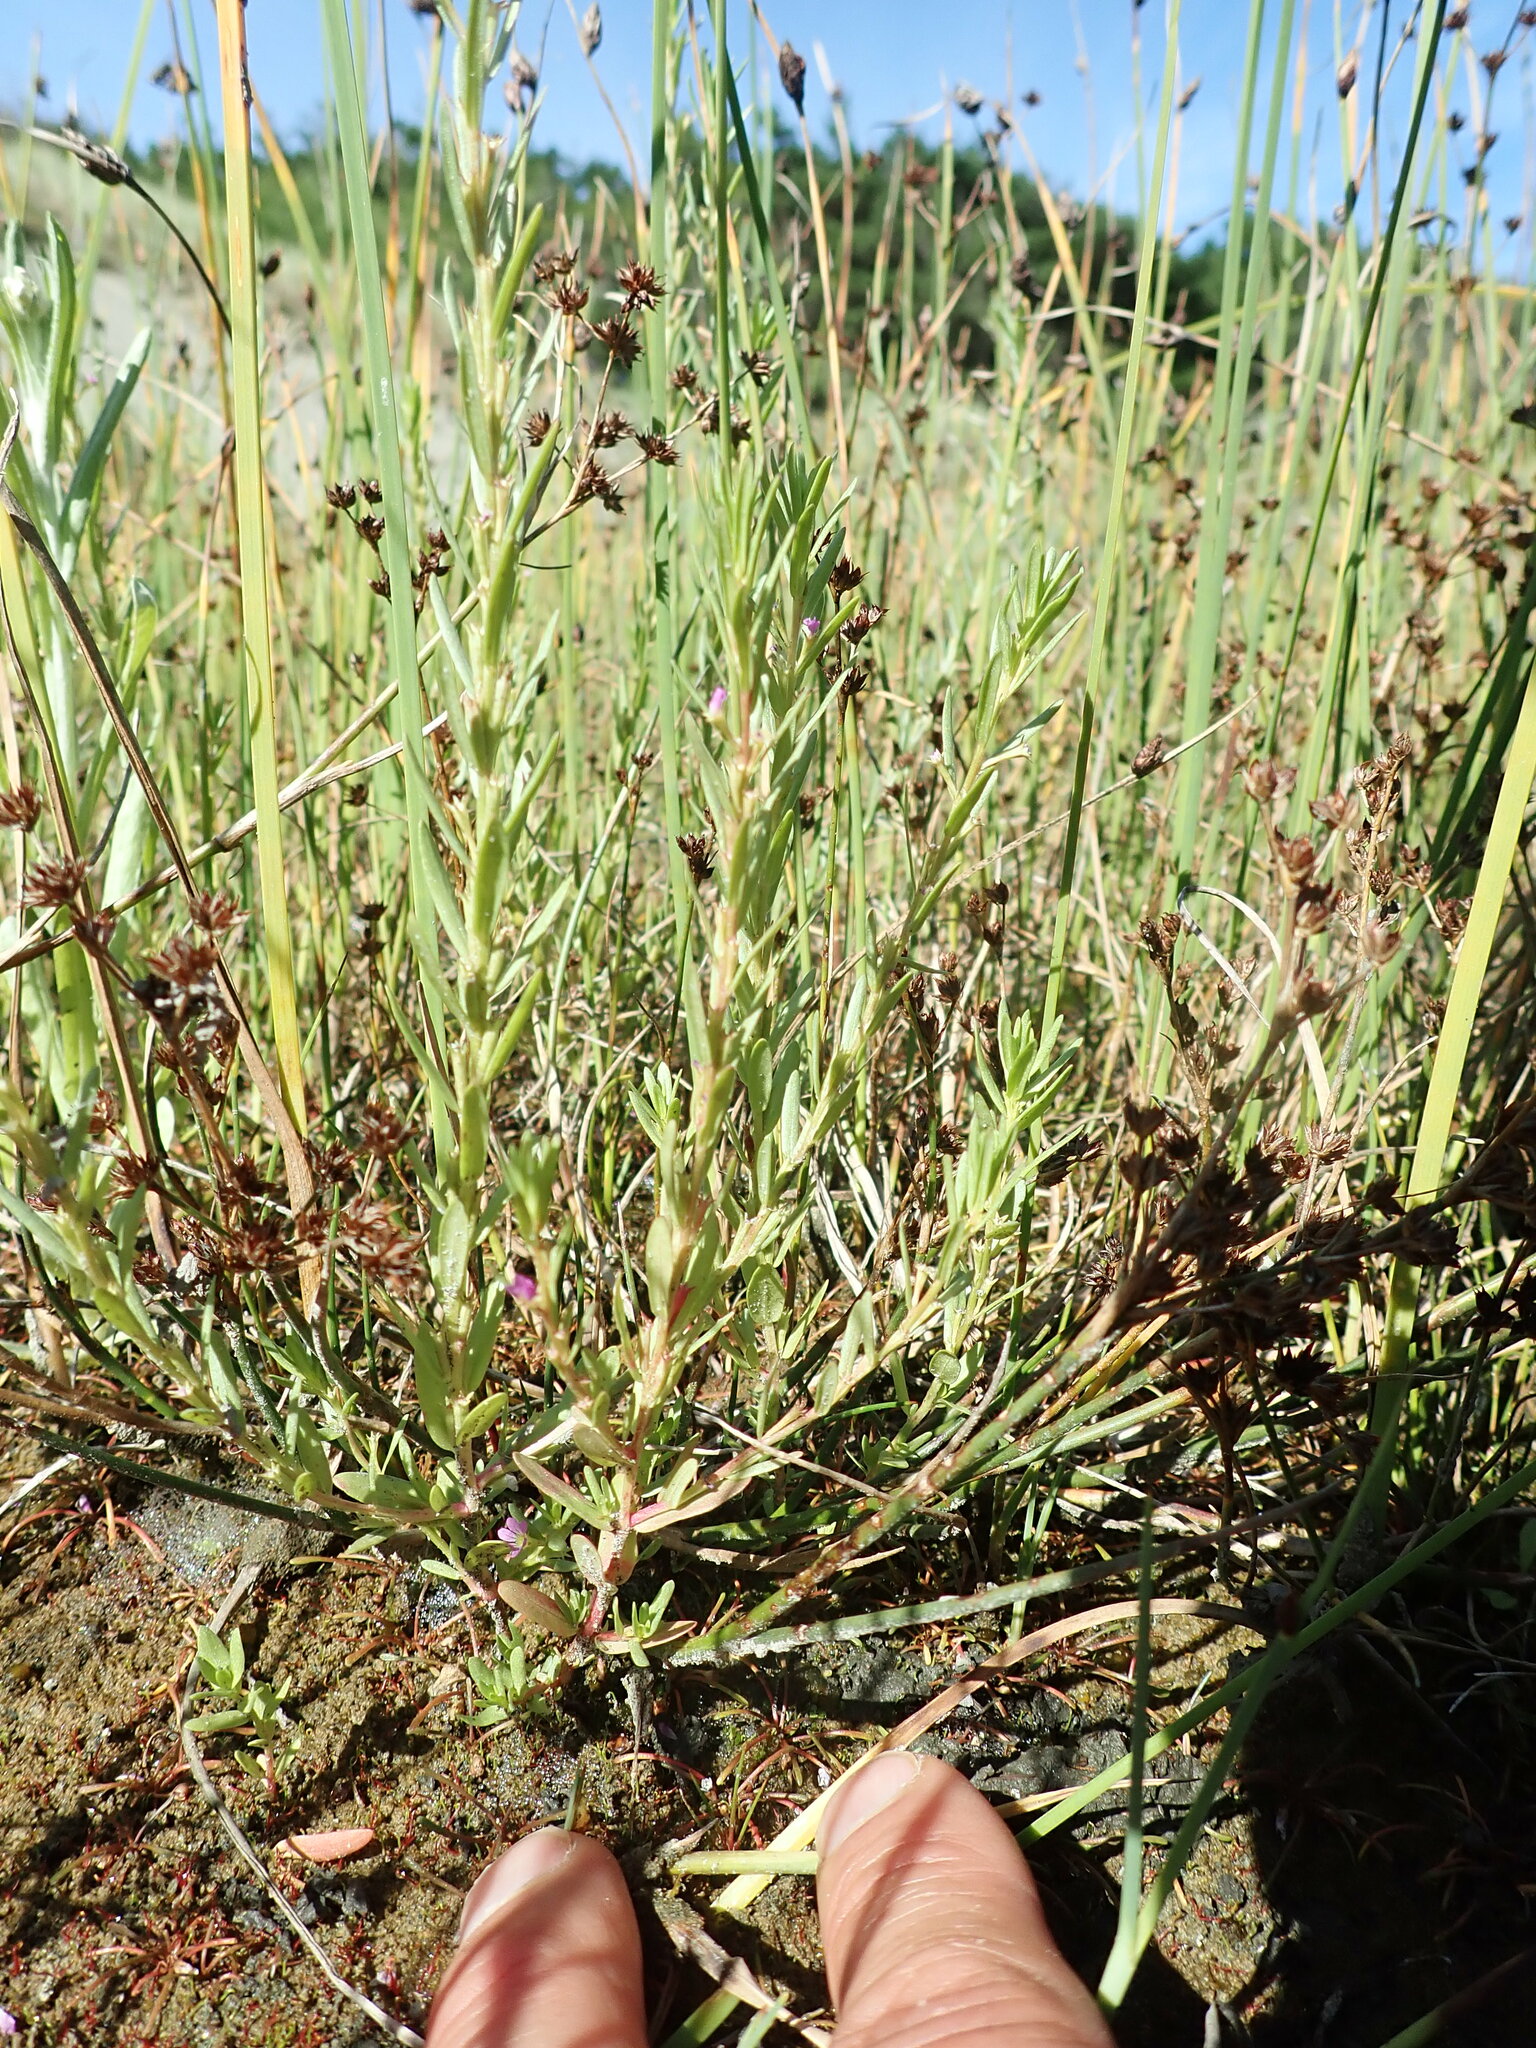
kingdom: Plantae
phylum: Tracheophyta
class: Magnoliopsida
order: Myrtales
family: Lythraceae
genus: Lythrum
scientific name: Lythrum hyssopifolia
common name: Grass-poly
